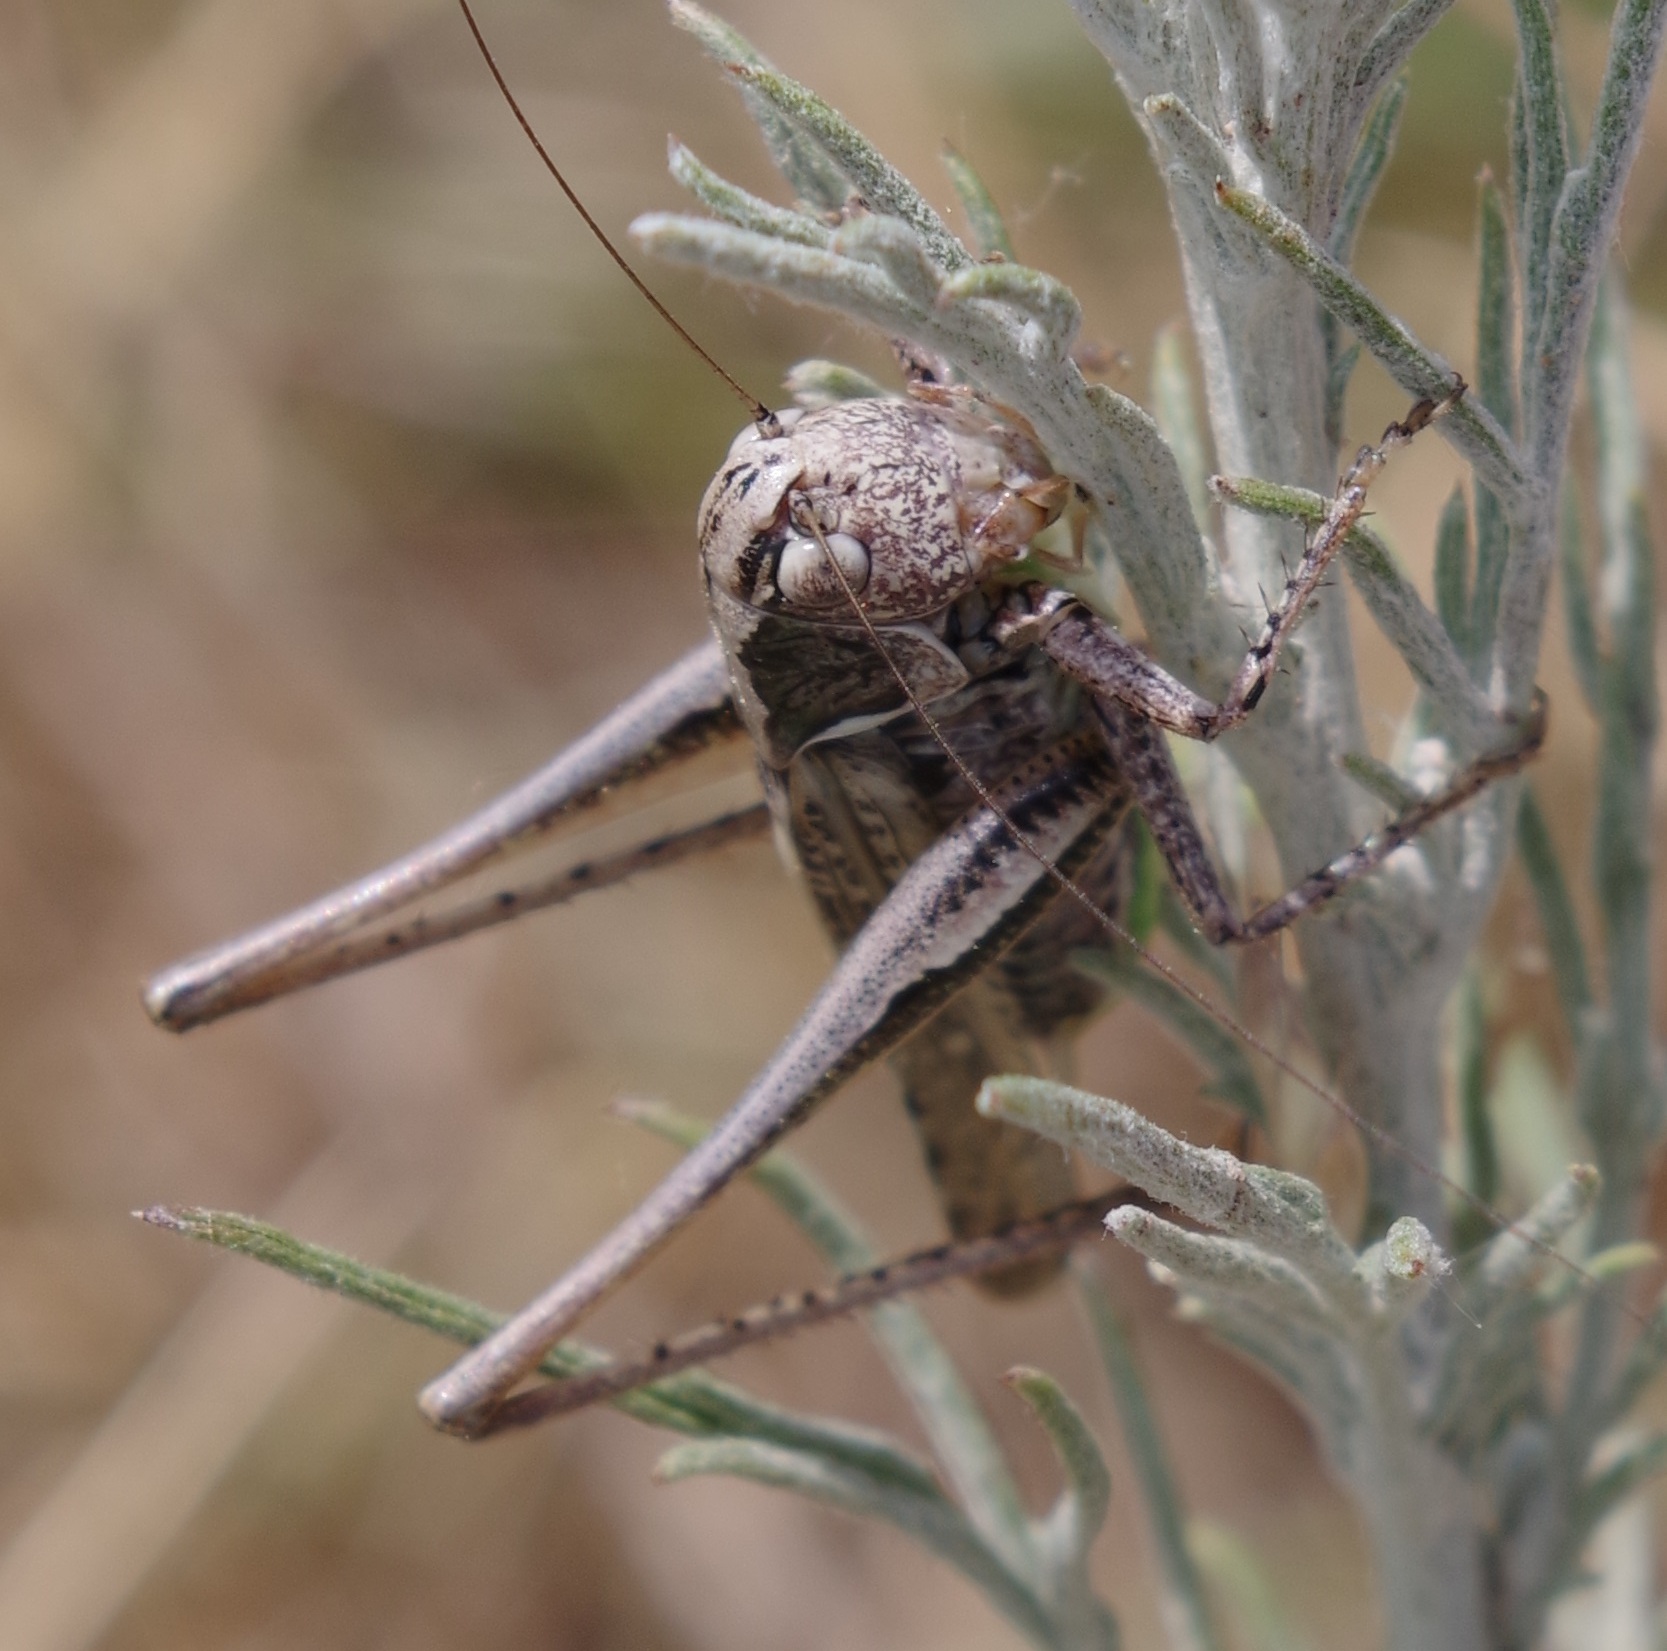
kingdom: Animalia
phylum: Arthropoda
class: Insecta
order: Orthoptera
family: Tettigoniidae
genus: Platycleis
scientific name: Platycleis albopunctata
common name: Grey bush-cricket
